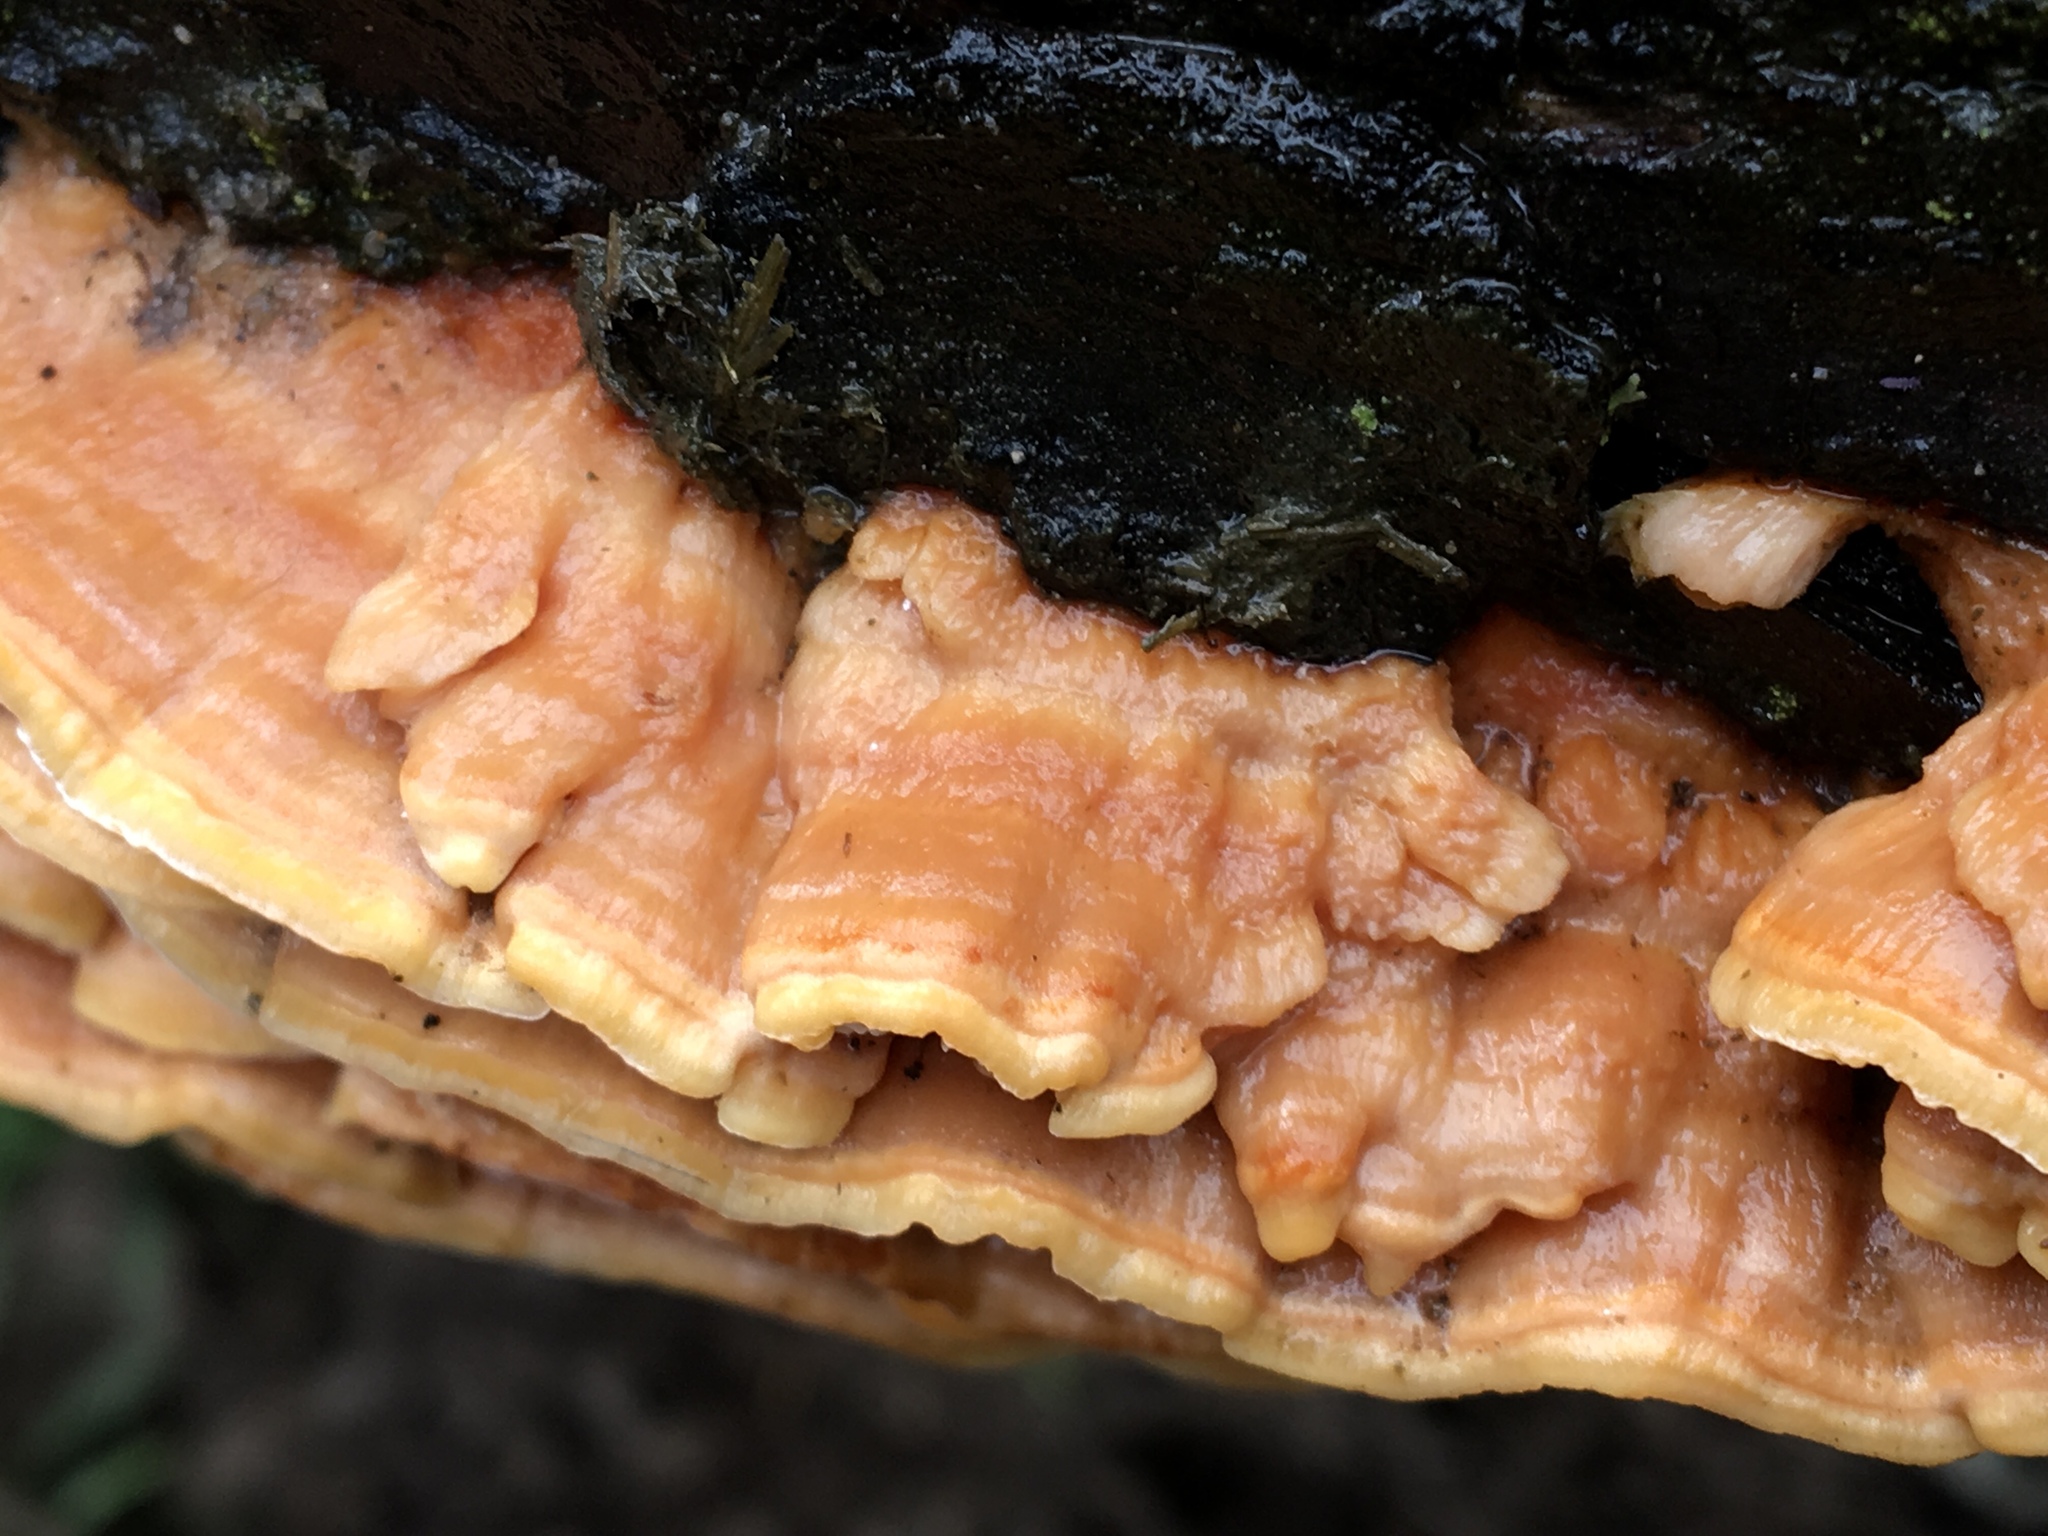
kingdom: Fungi
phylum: Basidiomycota
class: Agaricomycetes
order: Polyporales
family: Cerrenaceae
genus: Cerrena
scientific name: Cerrena zonata
